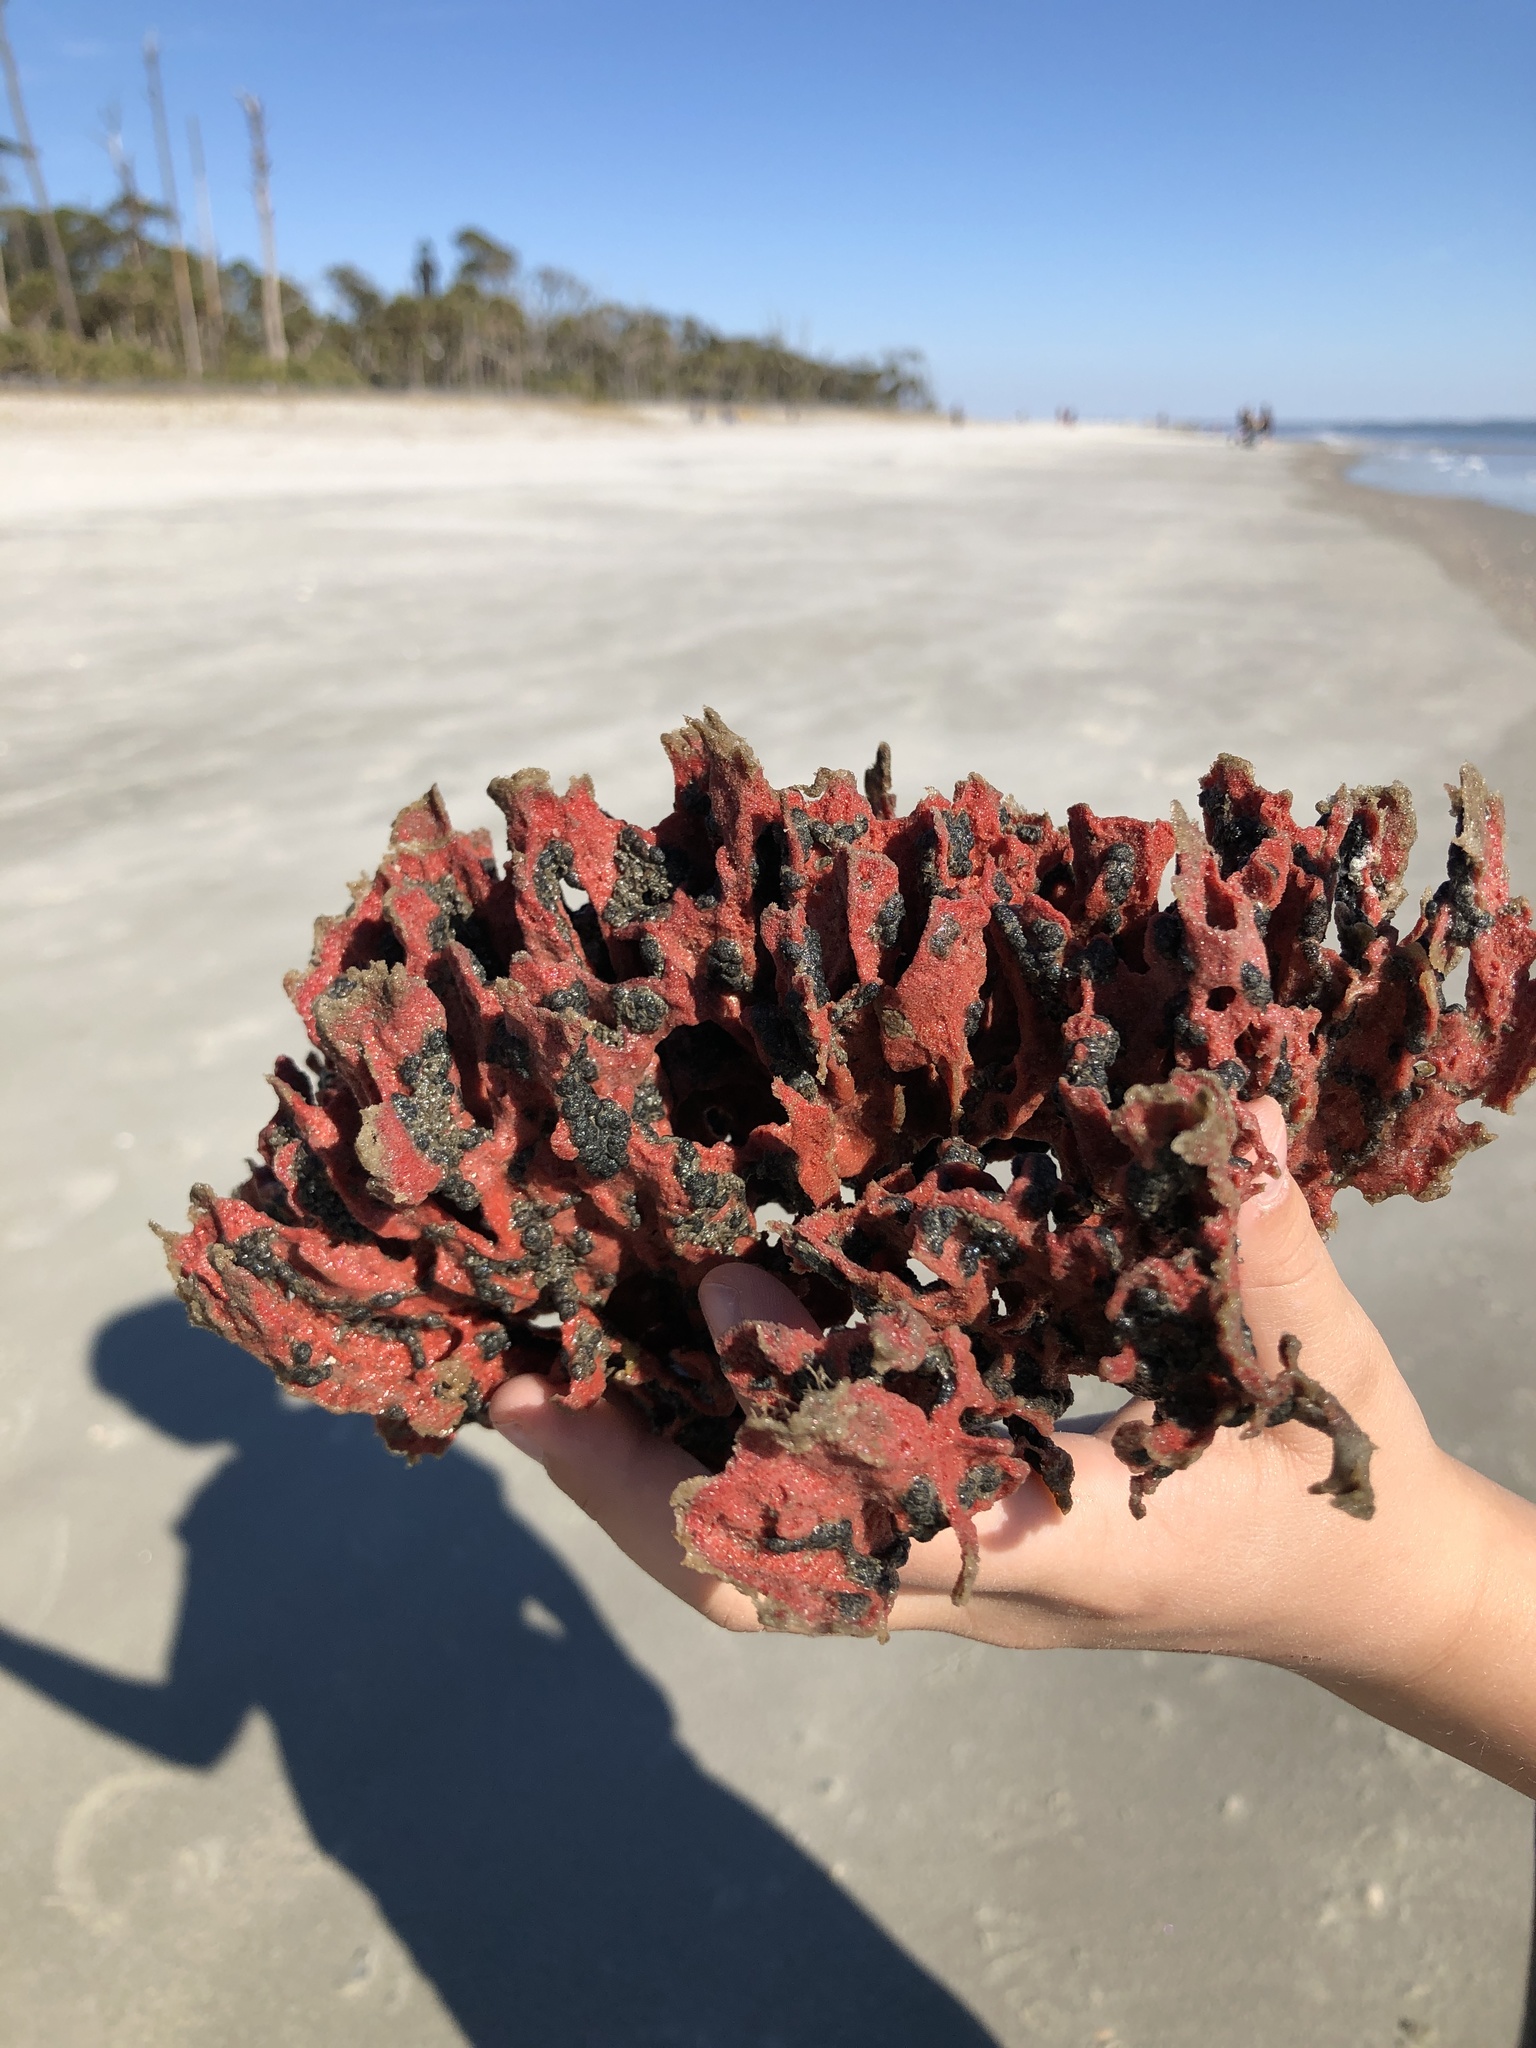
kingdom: Animalia
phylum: Porifera
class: Demospongiae
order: Poecilosclerida
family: Microcionidae
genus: Clathria
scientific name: Clathria prolifera
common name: Red beard sponge
